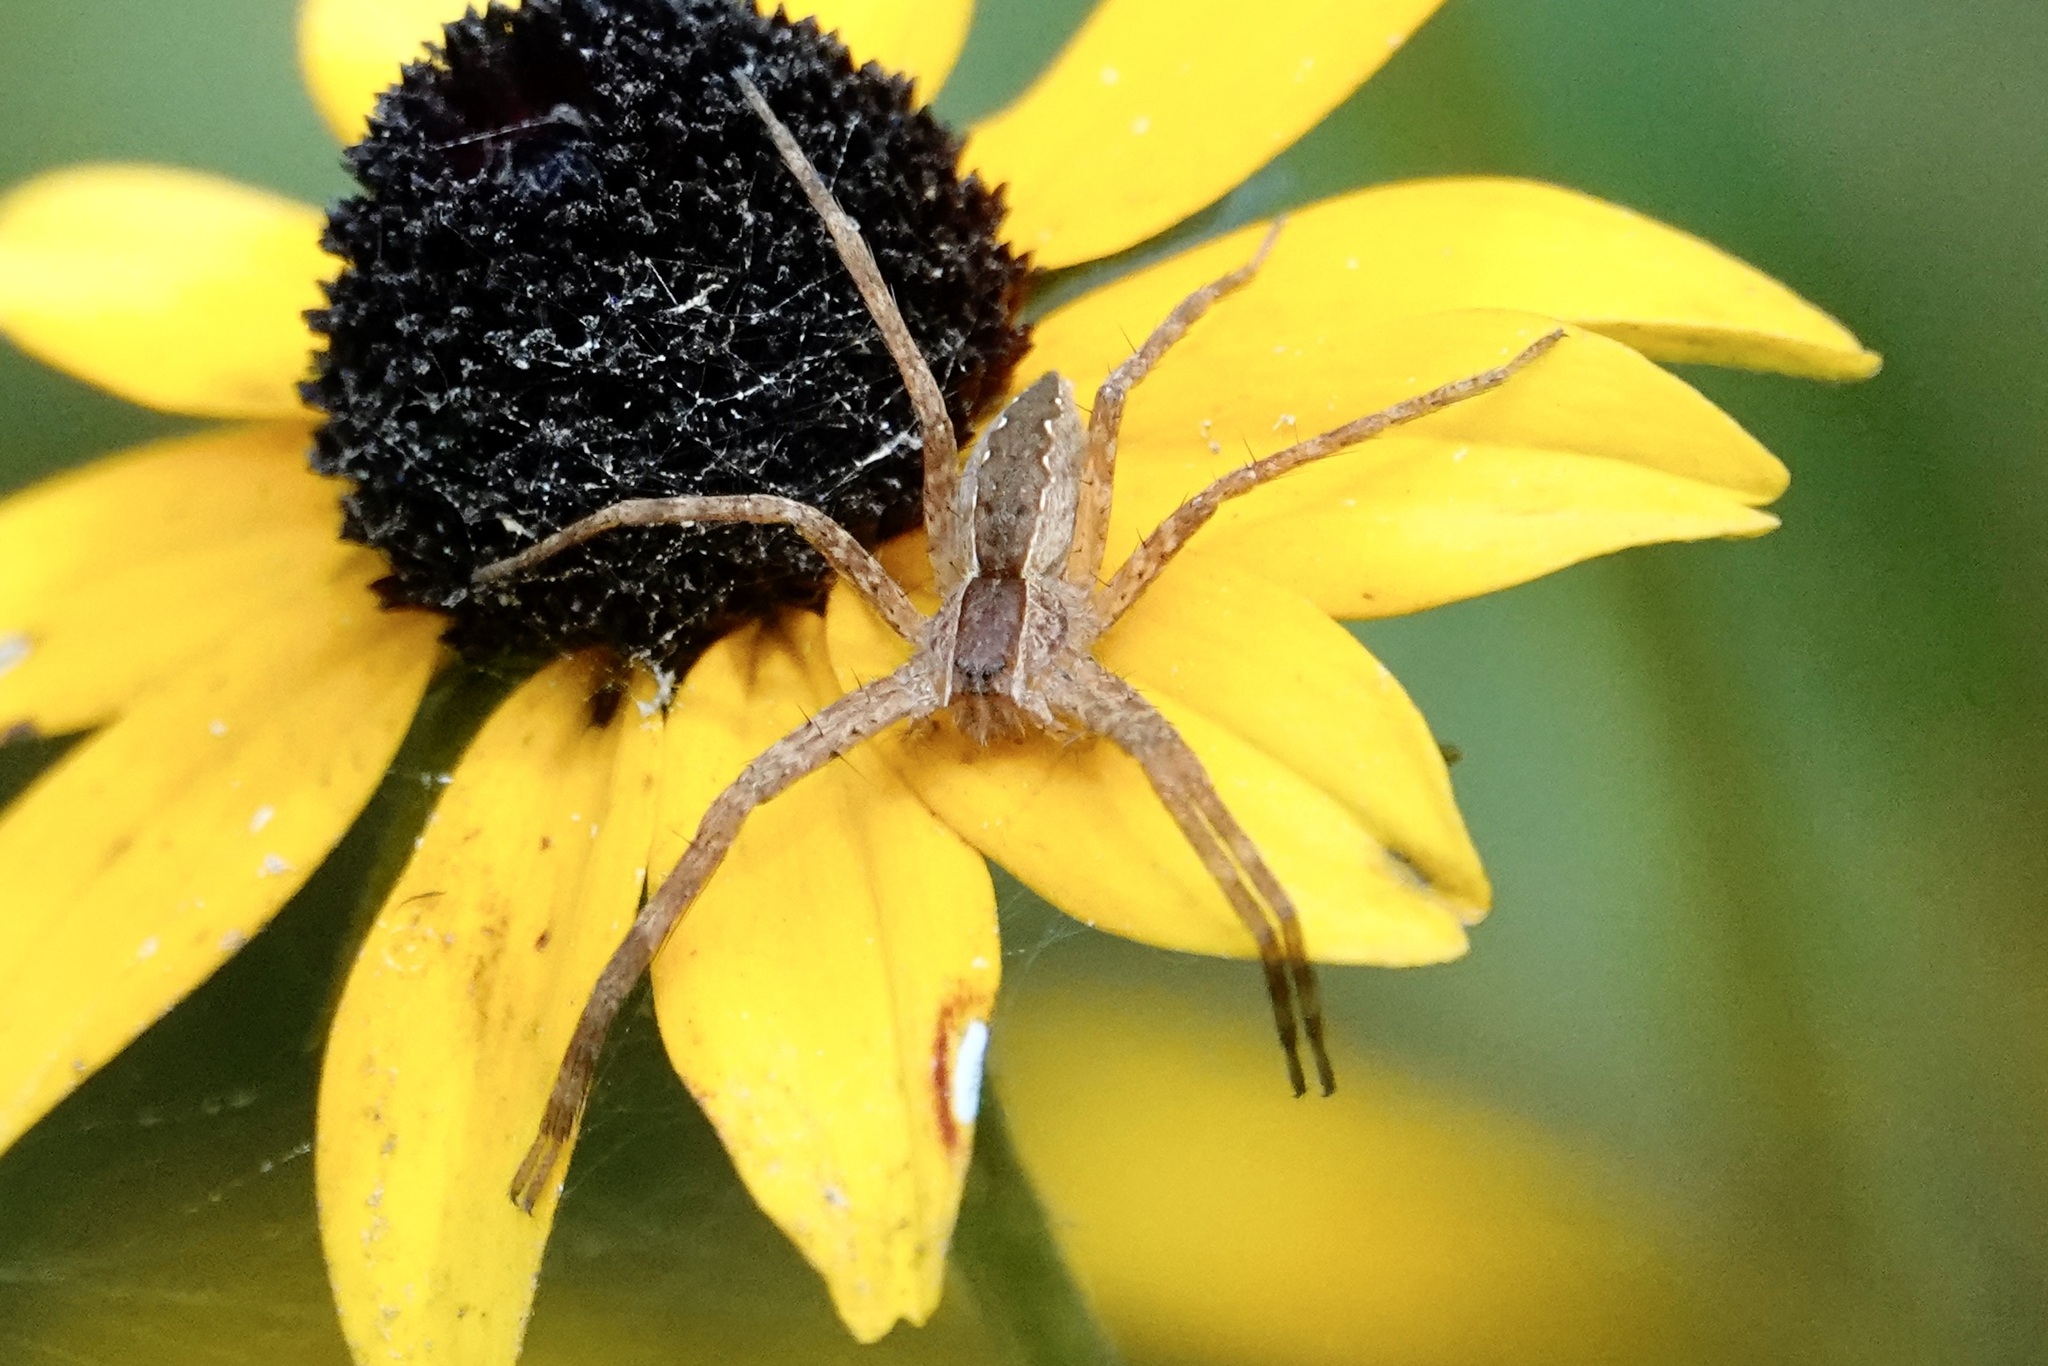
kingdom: Animalia
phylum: Arthropoda
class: Arachnida
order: Araneae
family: Pisauridae
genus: Pisaurina
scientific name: Pisaurina mira
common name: American nursery web spider
